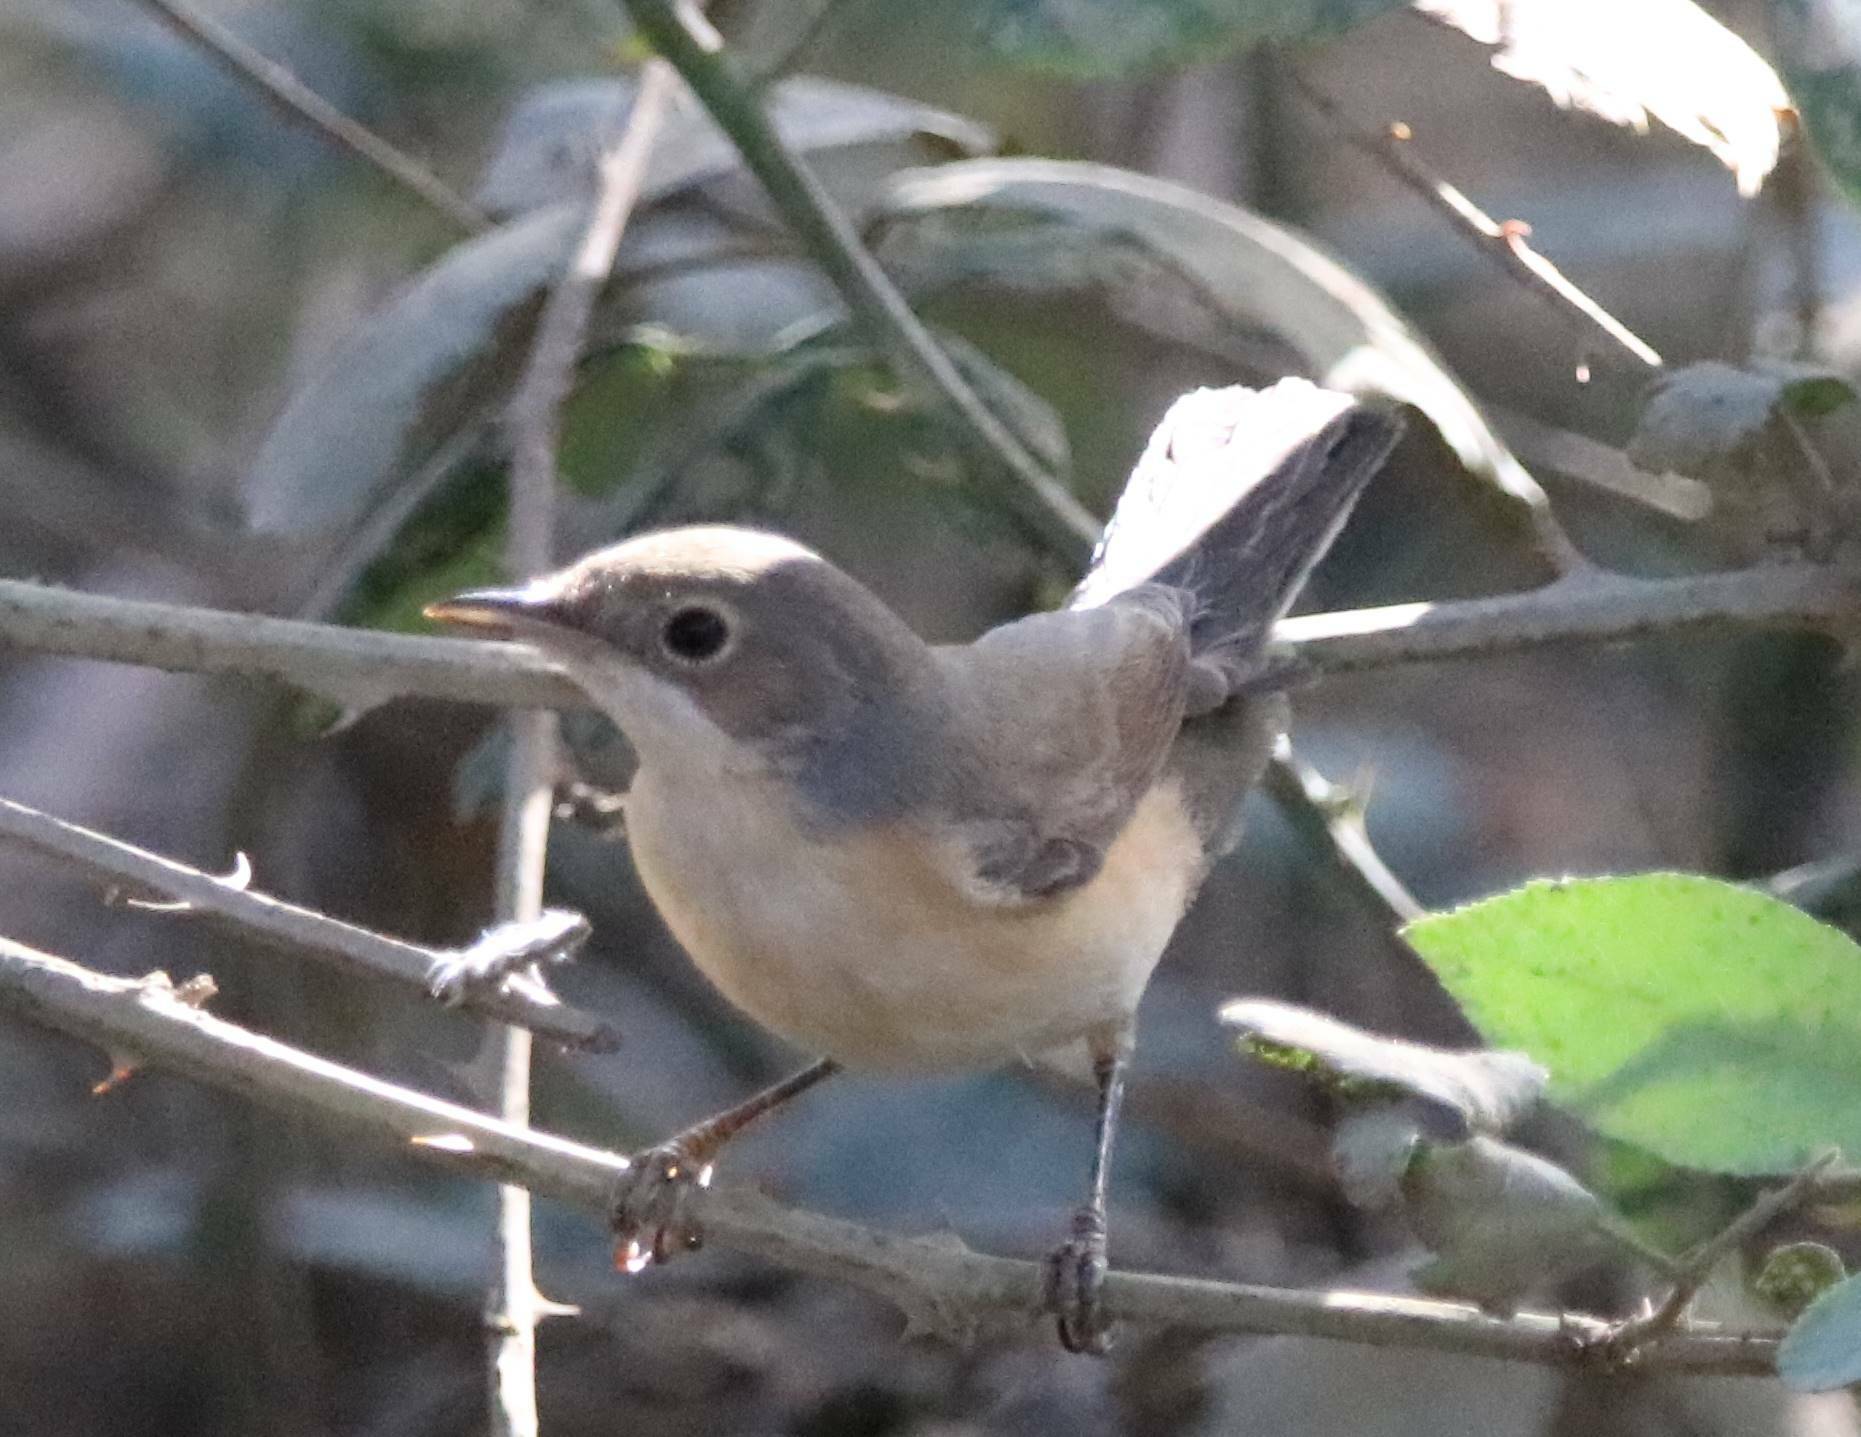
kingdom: Animalia
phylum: Chordata
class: Aves
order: Passeriformes
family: Sylviidae
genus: Curruca
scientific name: Curruca iberiae
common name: Western subalpine warbler
